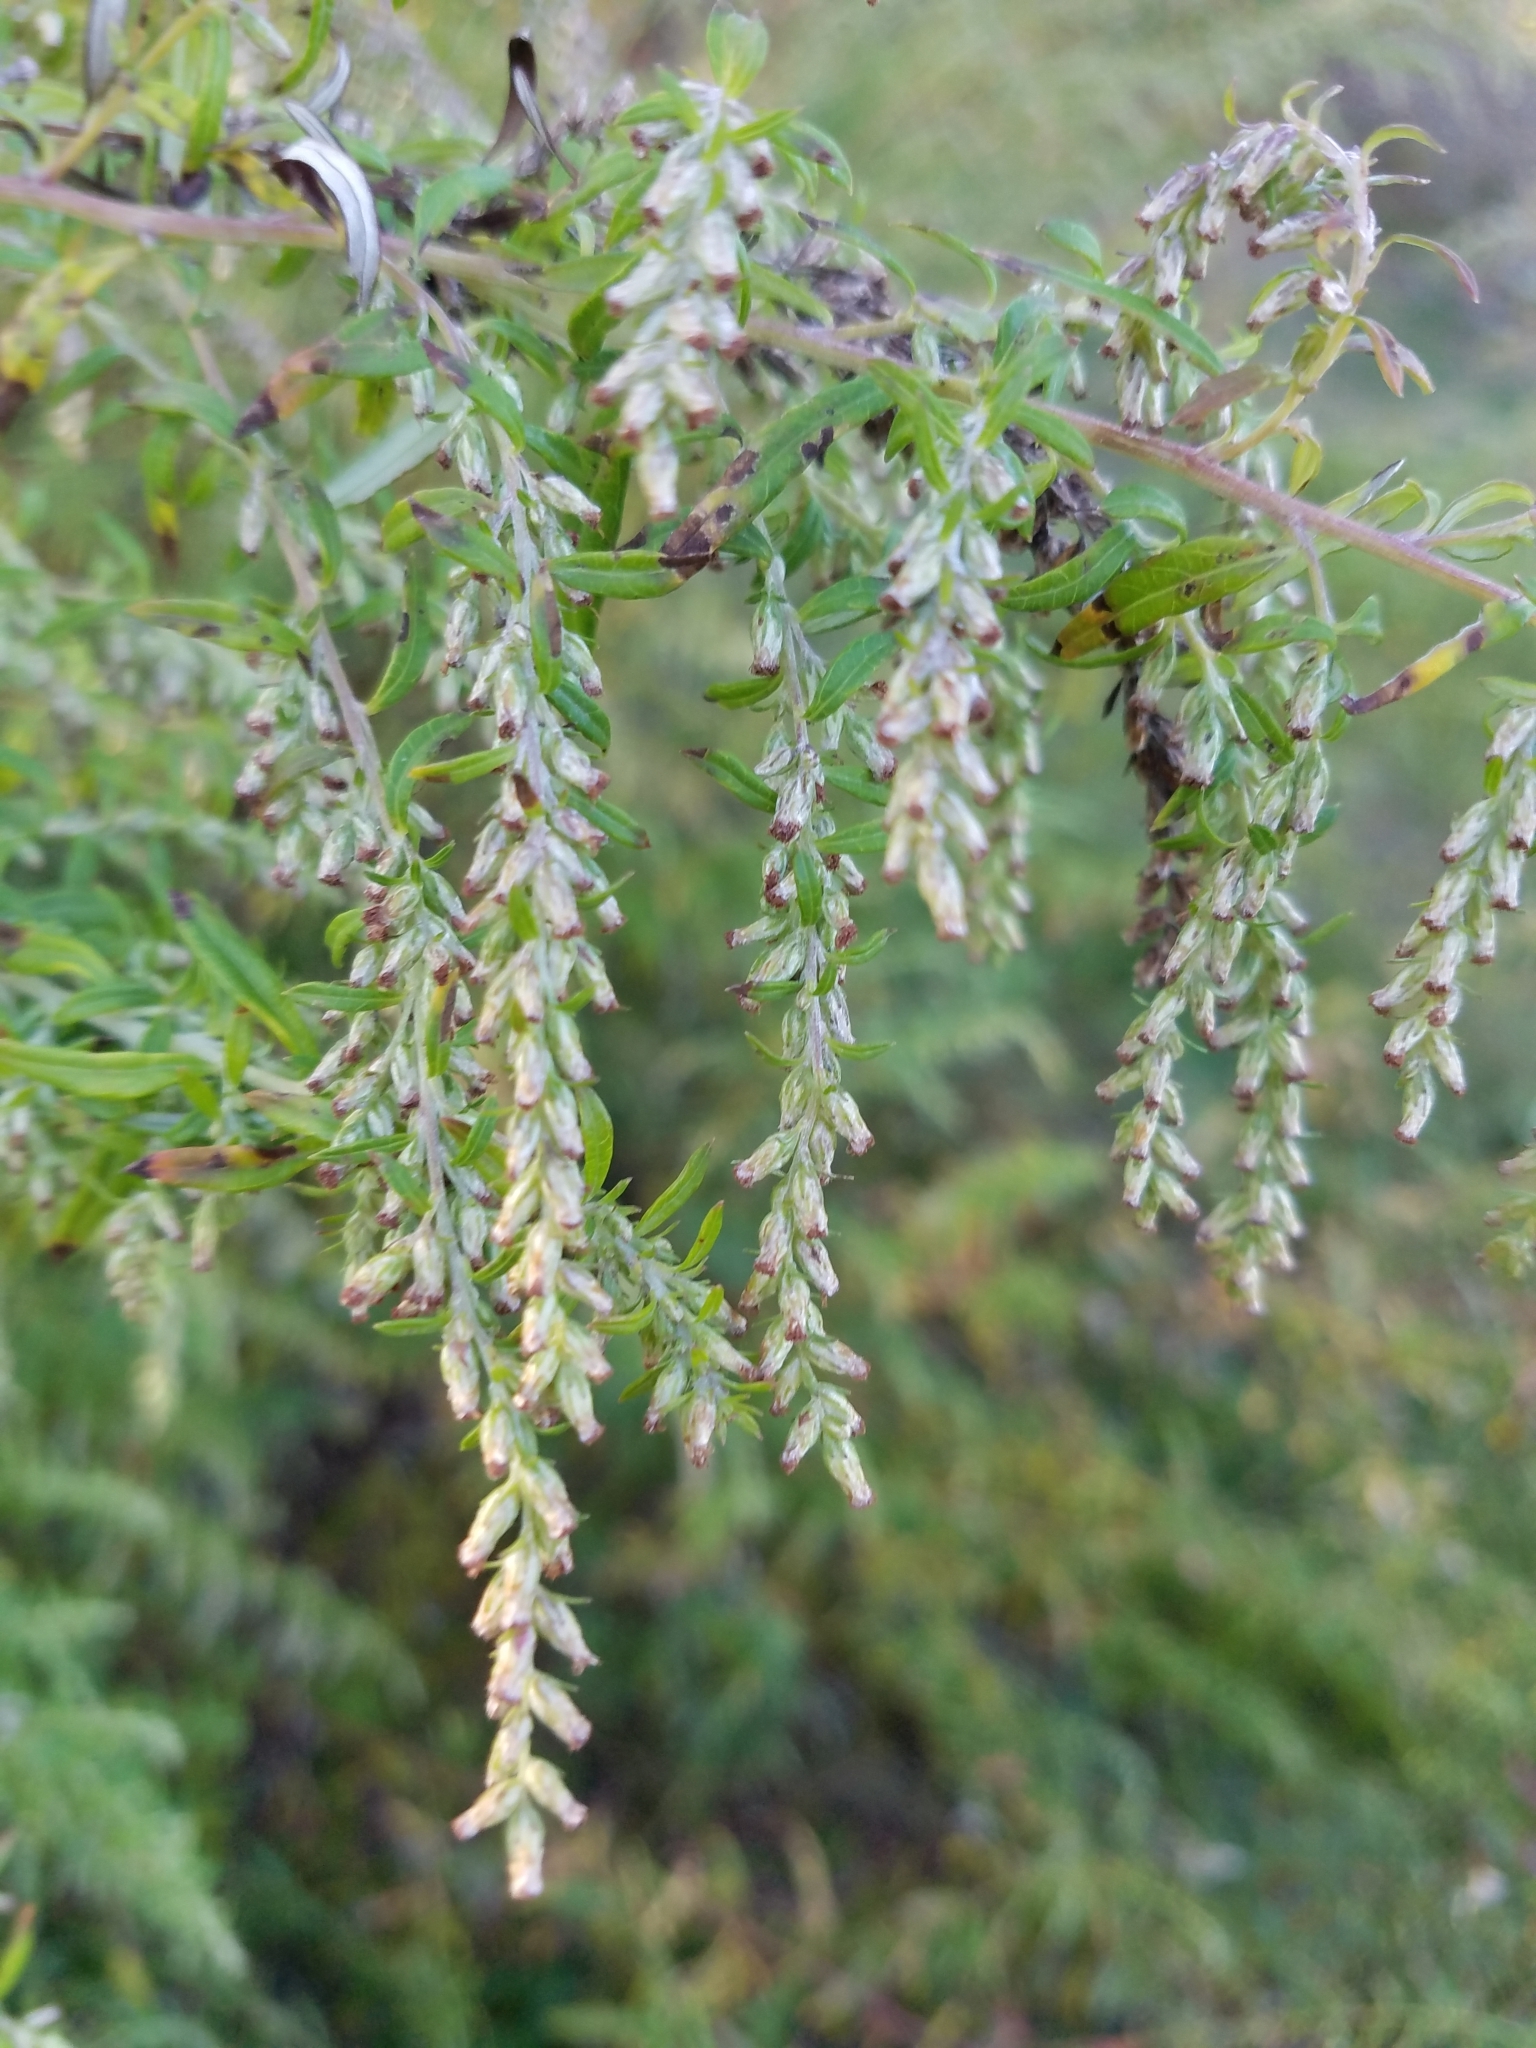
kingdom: Plantae
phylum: Tracheophyta
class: Magnoliopsida
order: Asterales
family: Asteraceae
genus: Artemisia
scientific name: Artemisia vulgaris
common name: Mugwort
